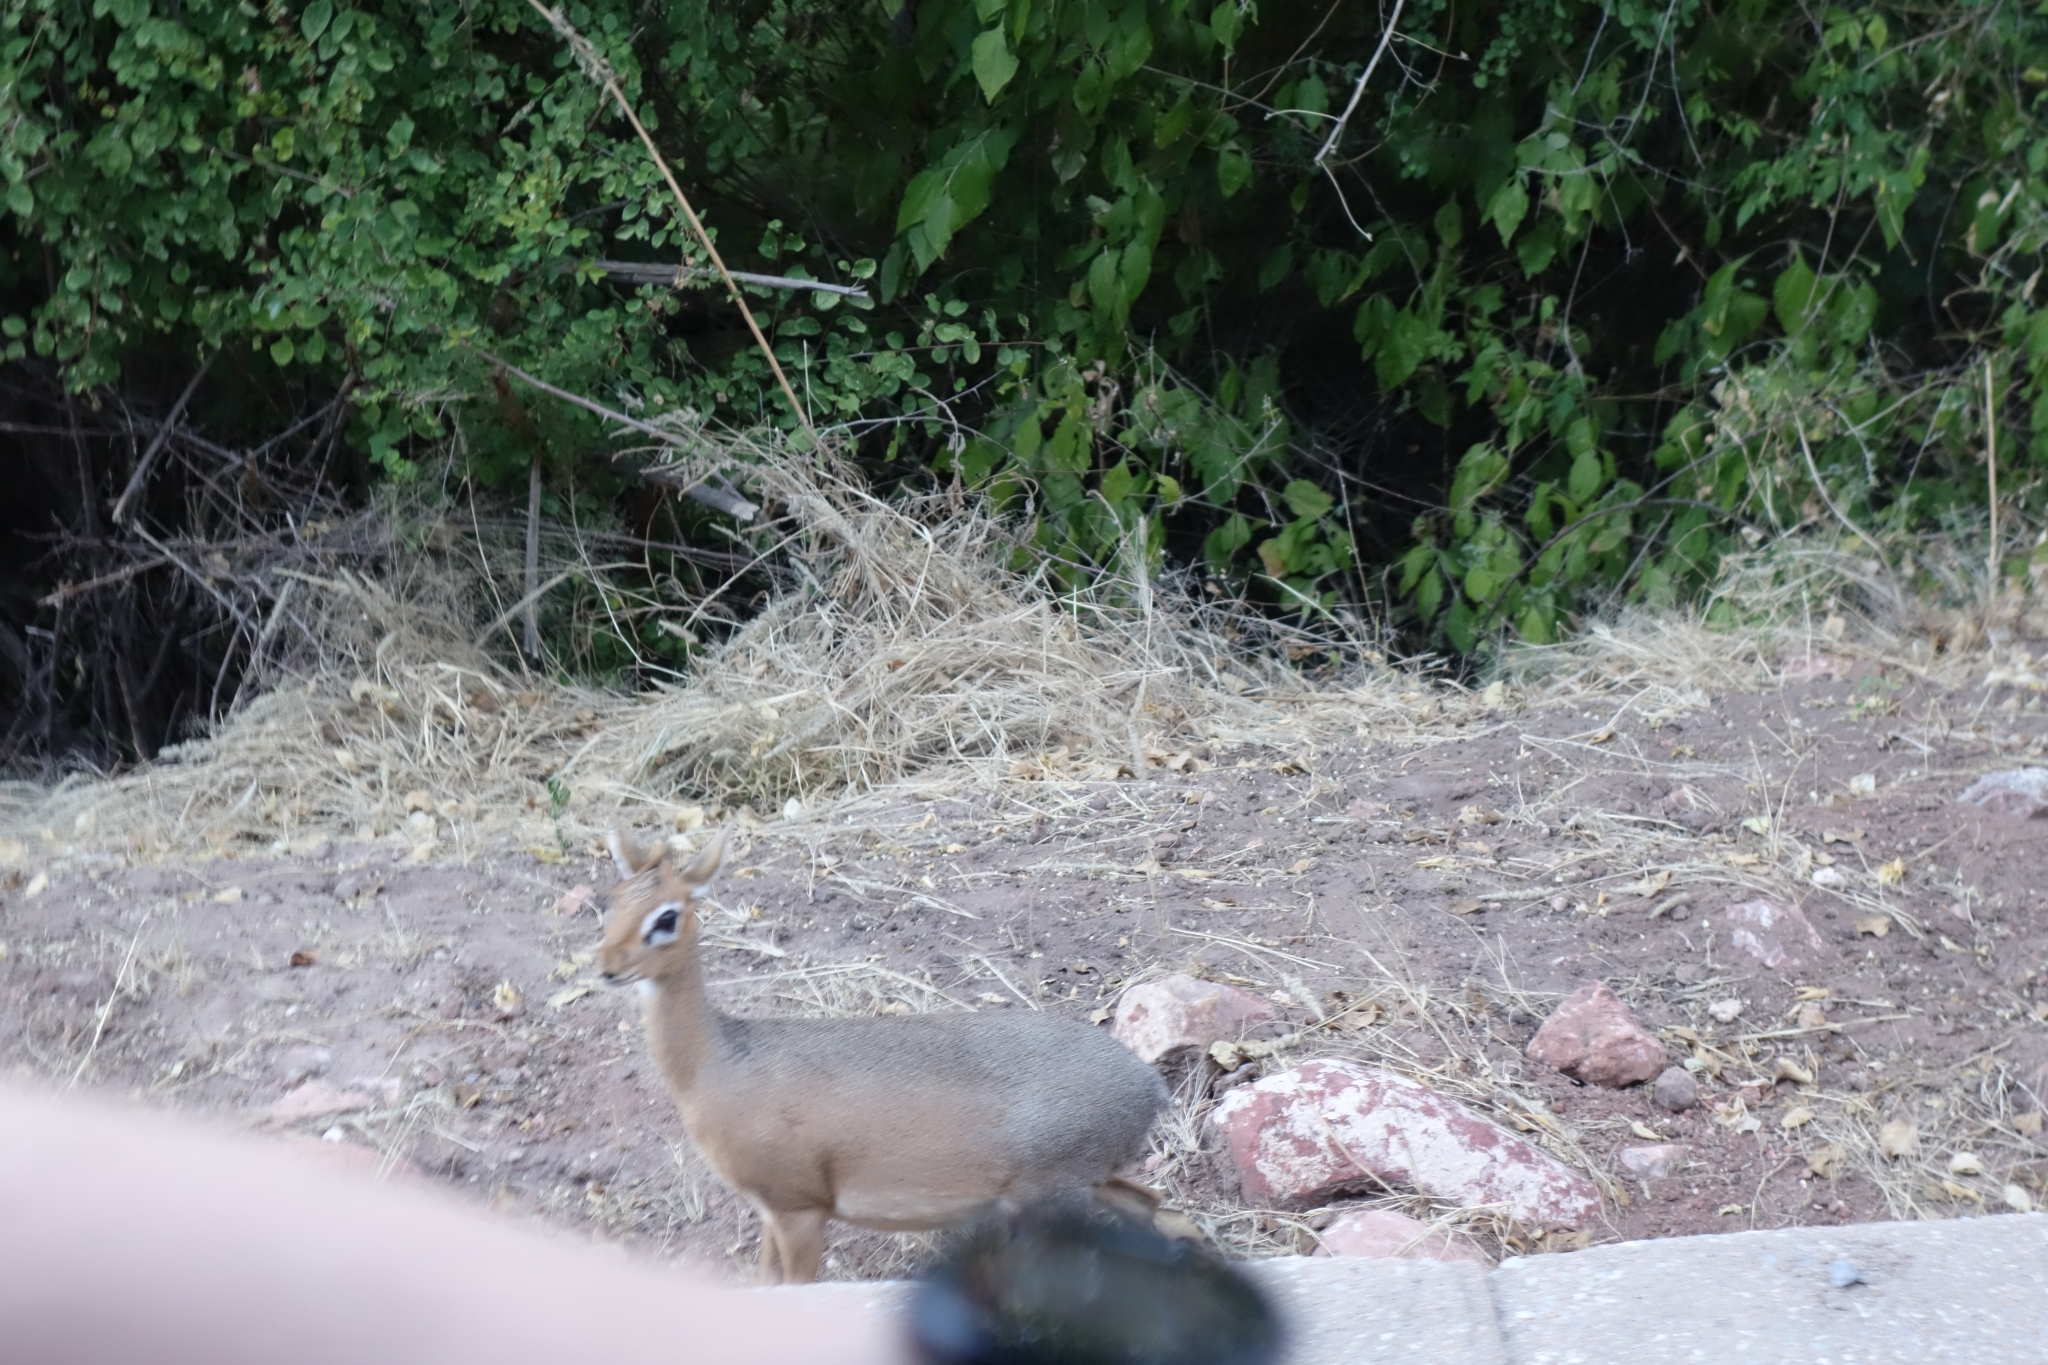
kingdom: Animalia
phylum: Chordata
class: Mammalia
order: Artiodactyla
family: Bovidae
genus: Madoqua
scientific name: Madoqua kirkii
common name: Kirk's dik-dik
